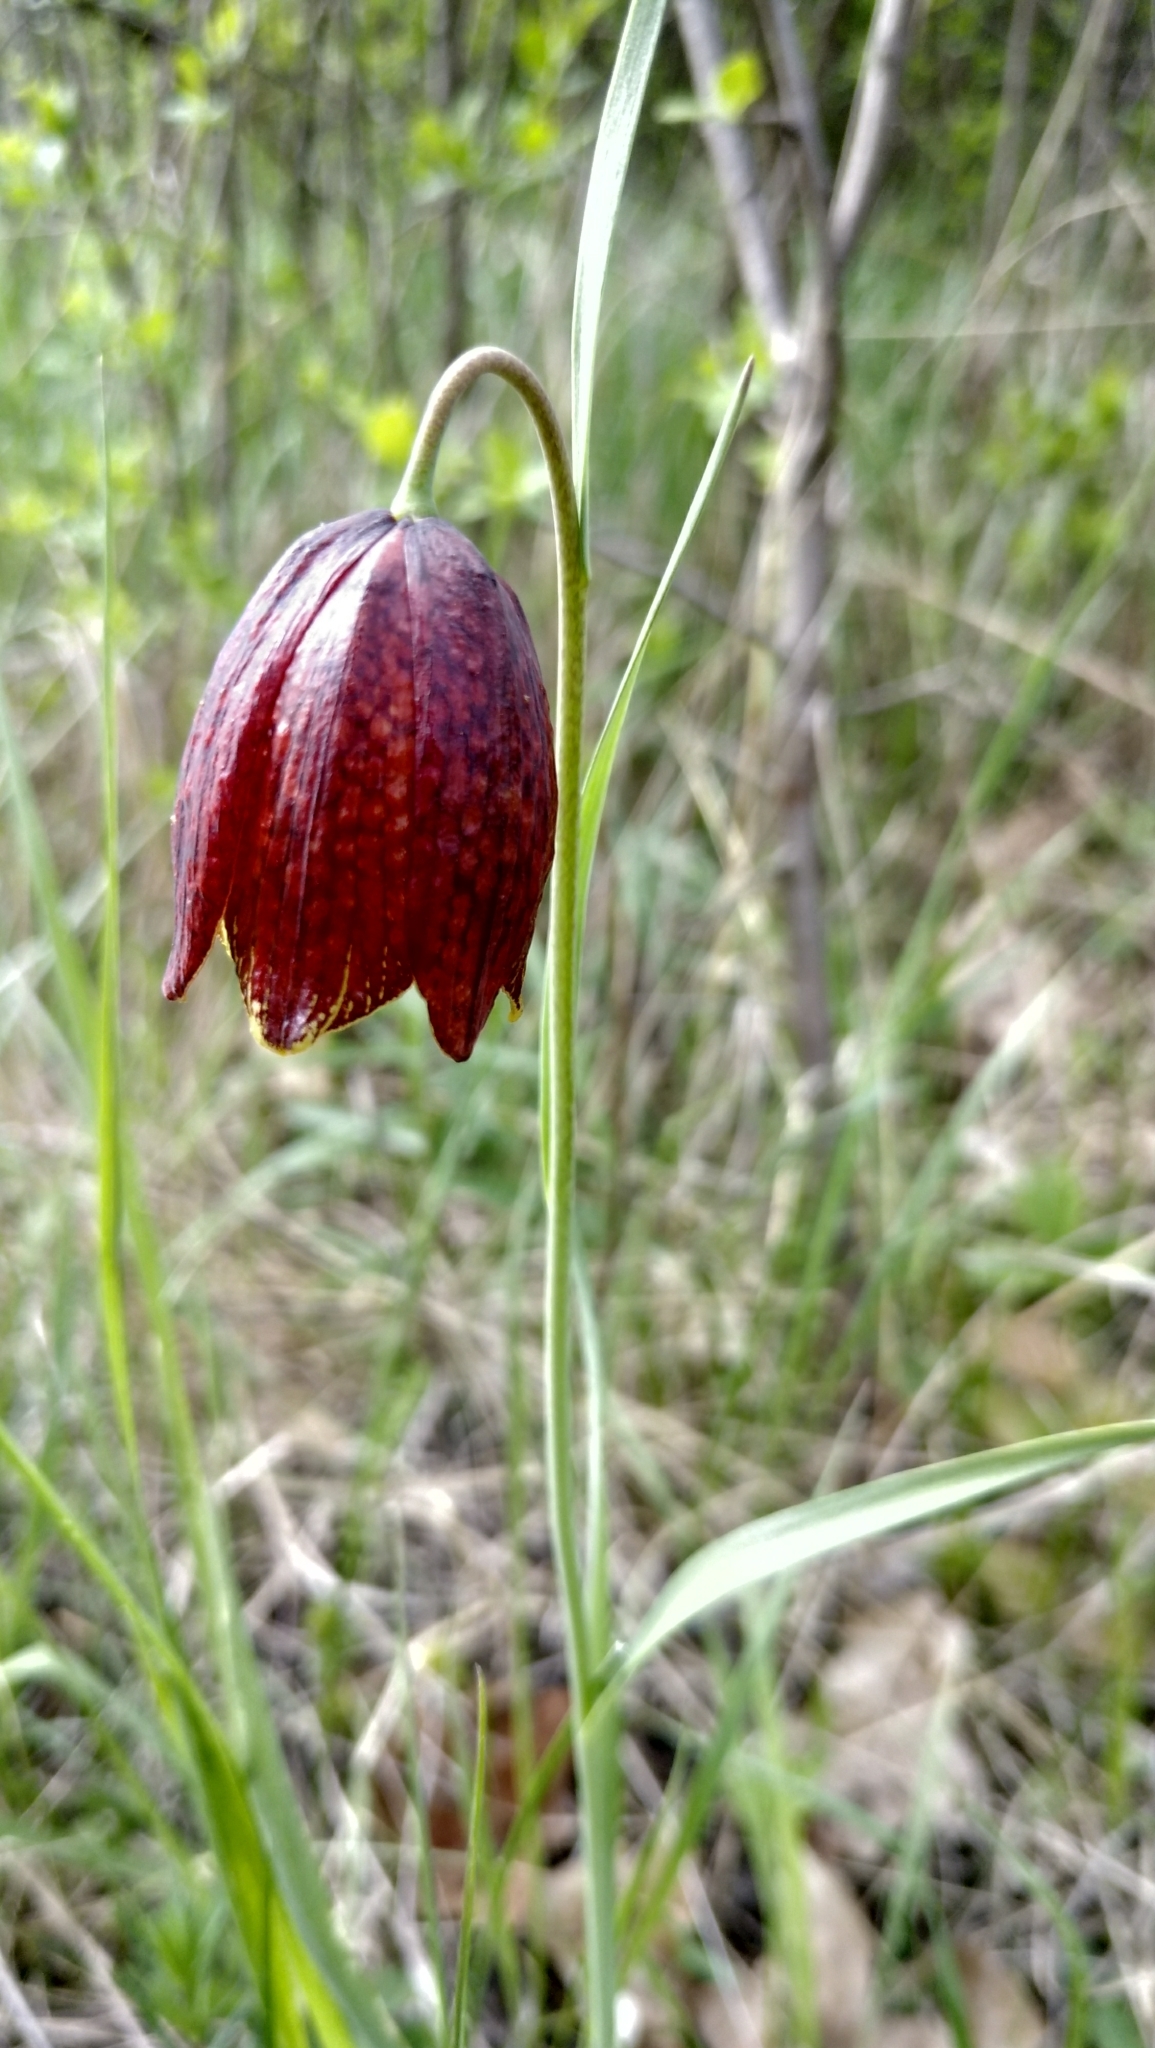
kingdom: Plantae
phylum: Tracheophyta
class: Liliopsida
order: Liliales
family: Liliaceae
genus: Fritillaria
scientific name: Fritillaria meleagroides
